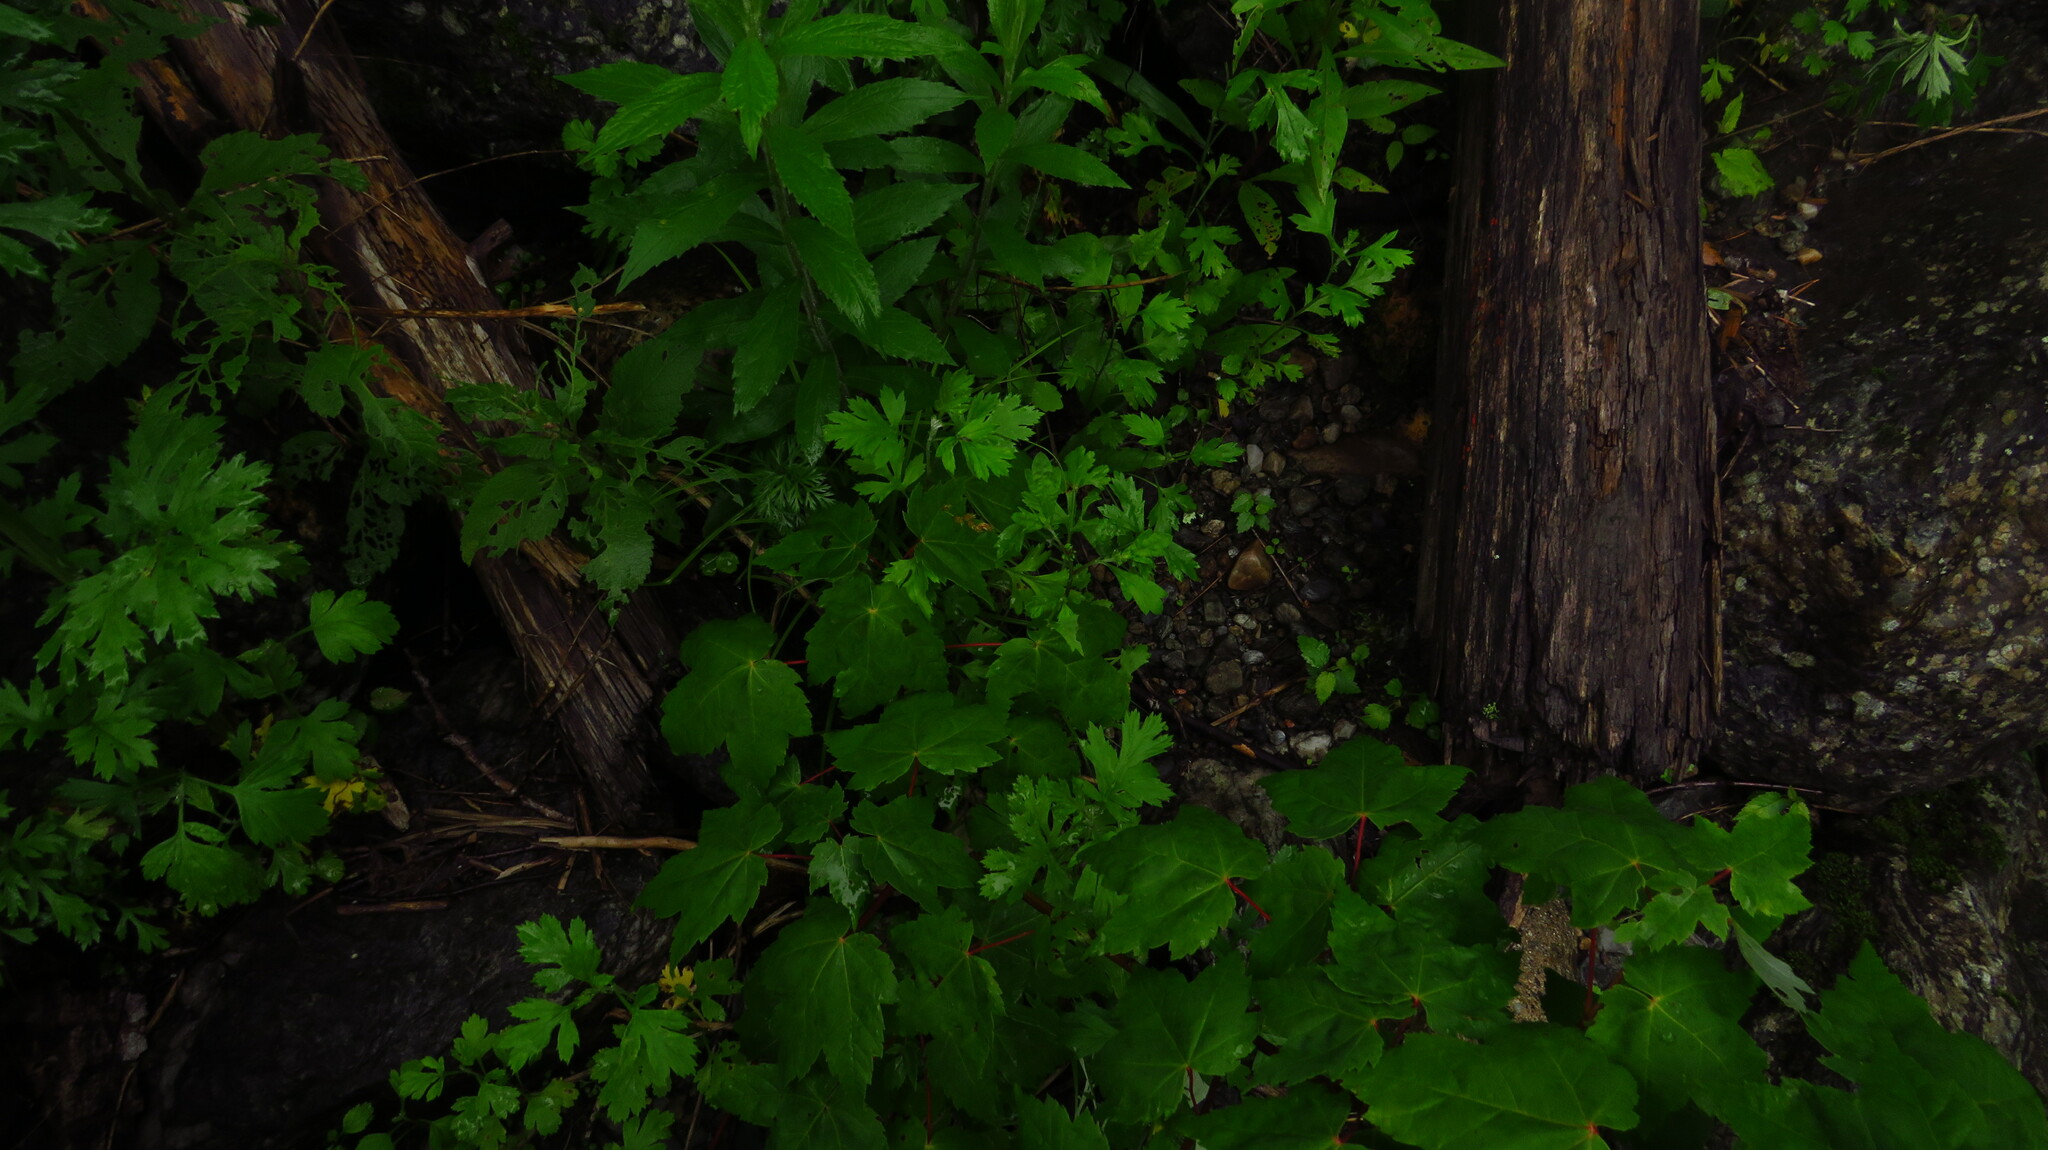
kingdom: Plantae
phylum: Tracheophyta
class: Magnoliopsida
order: Sapindales
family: Sapindaceae
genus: Acer
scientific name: Acer rubrum
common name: Red maple
